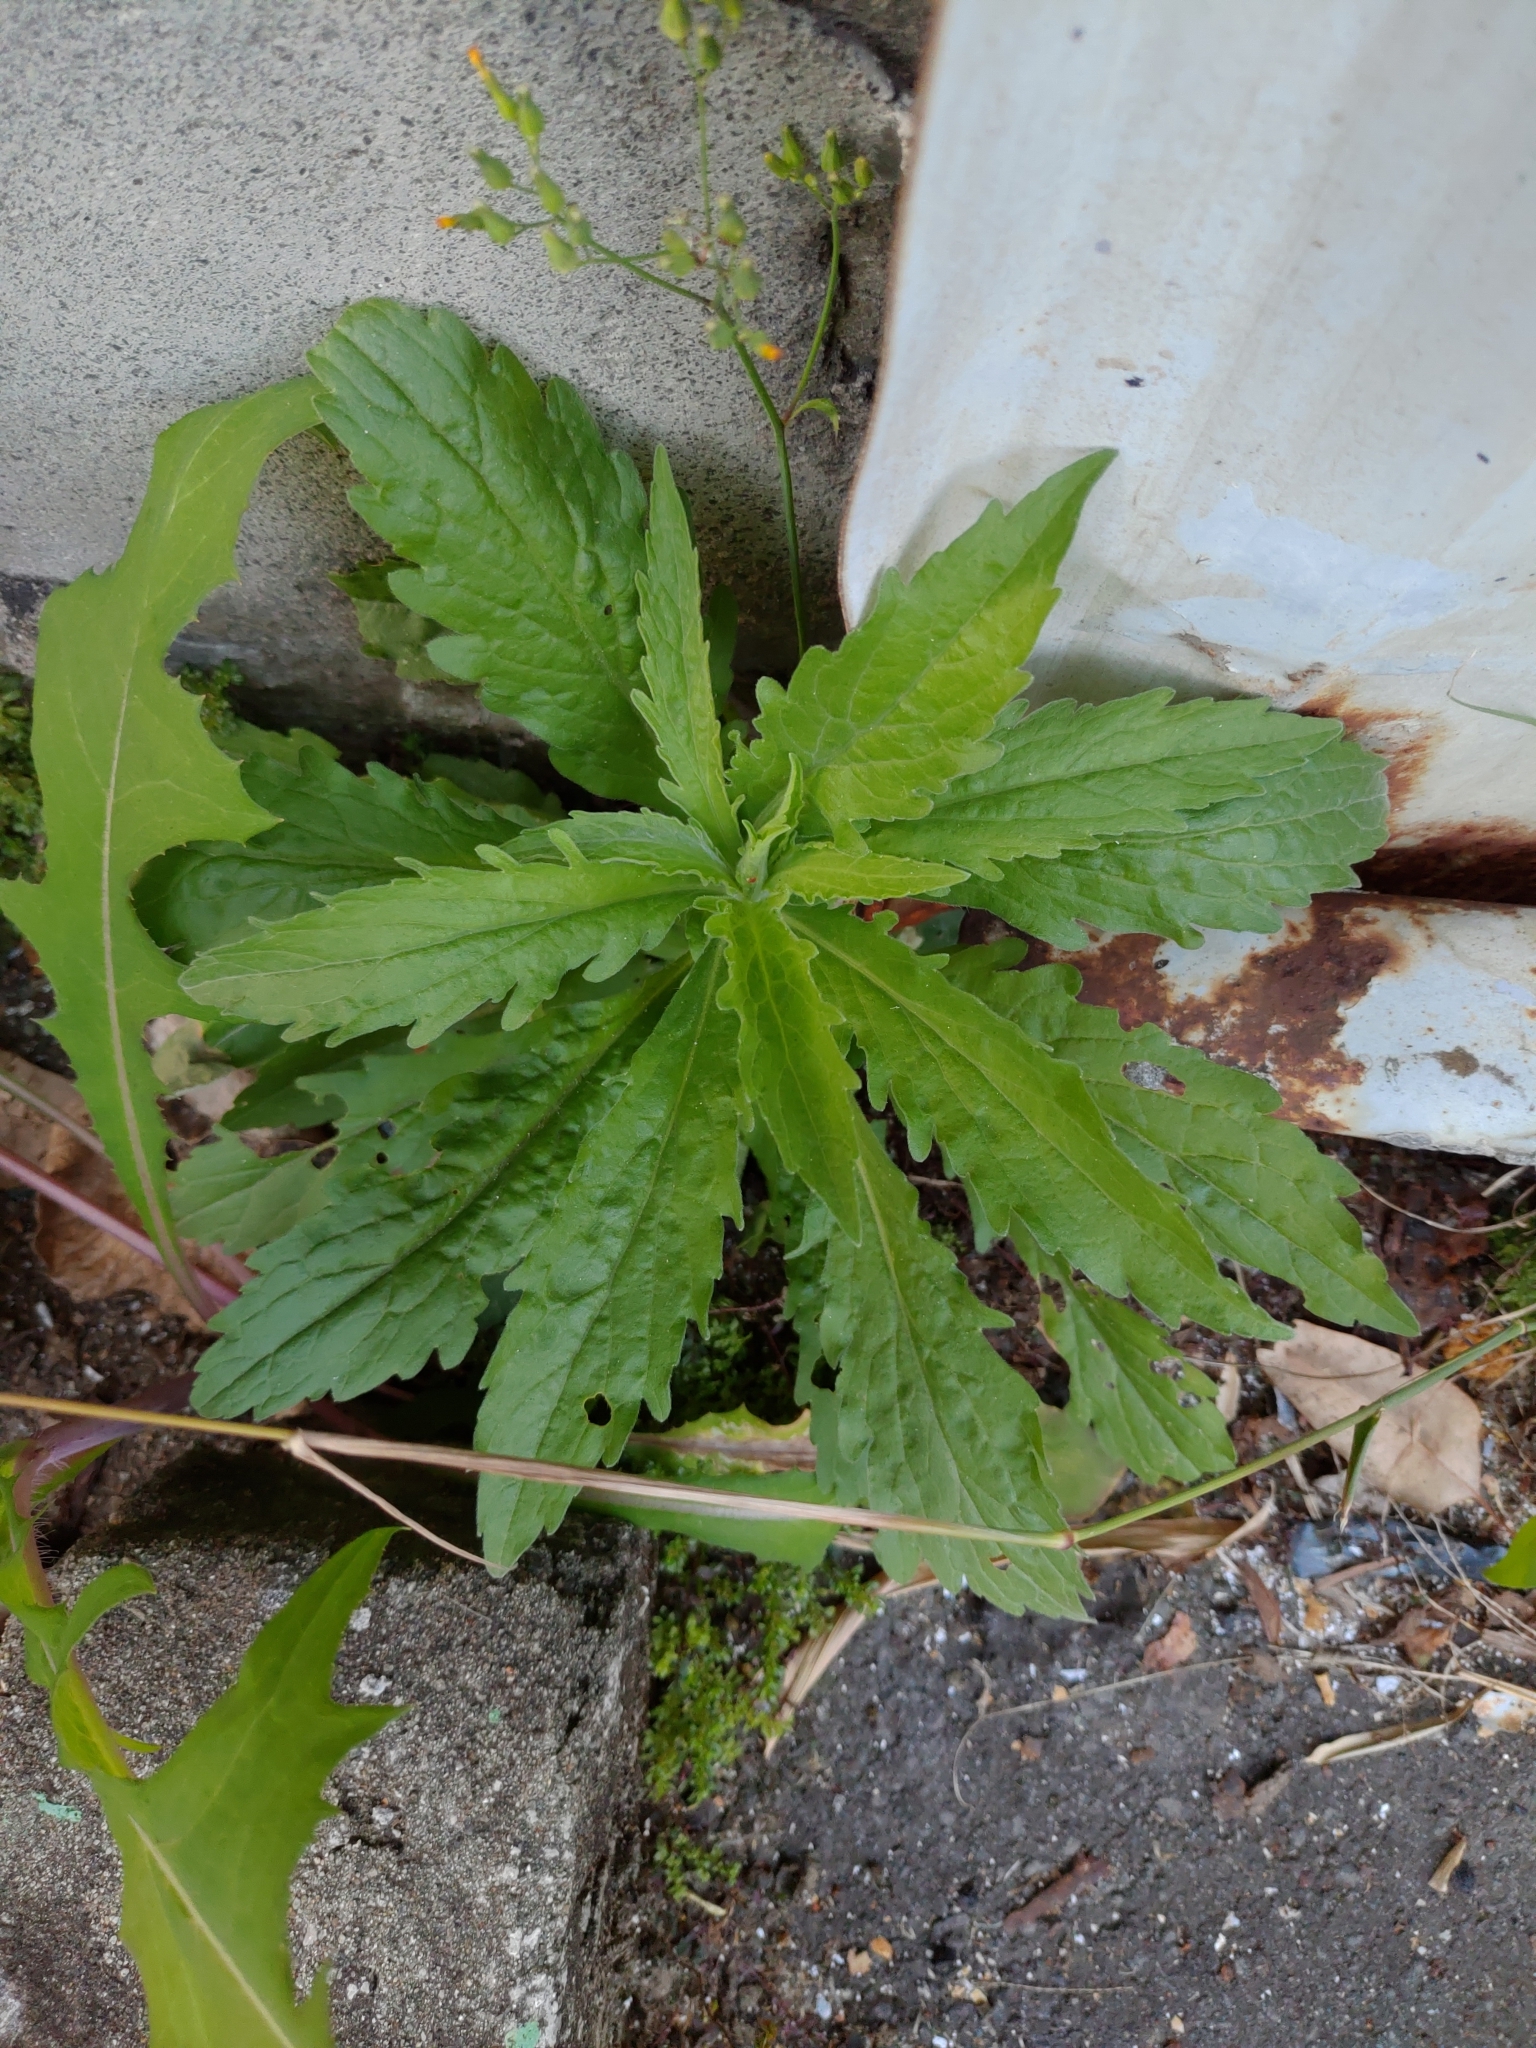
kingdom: Plantae
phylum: Tracheophyta
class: Magnoliopsida
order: Asterales
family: Asteraceae
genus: Erigeron
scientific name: Erigeron sumatrensis
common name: Daisy
